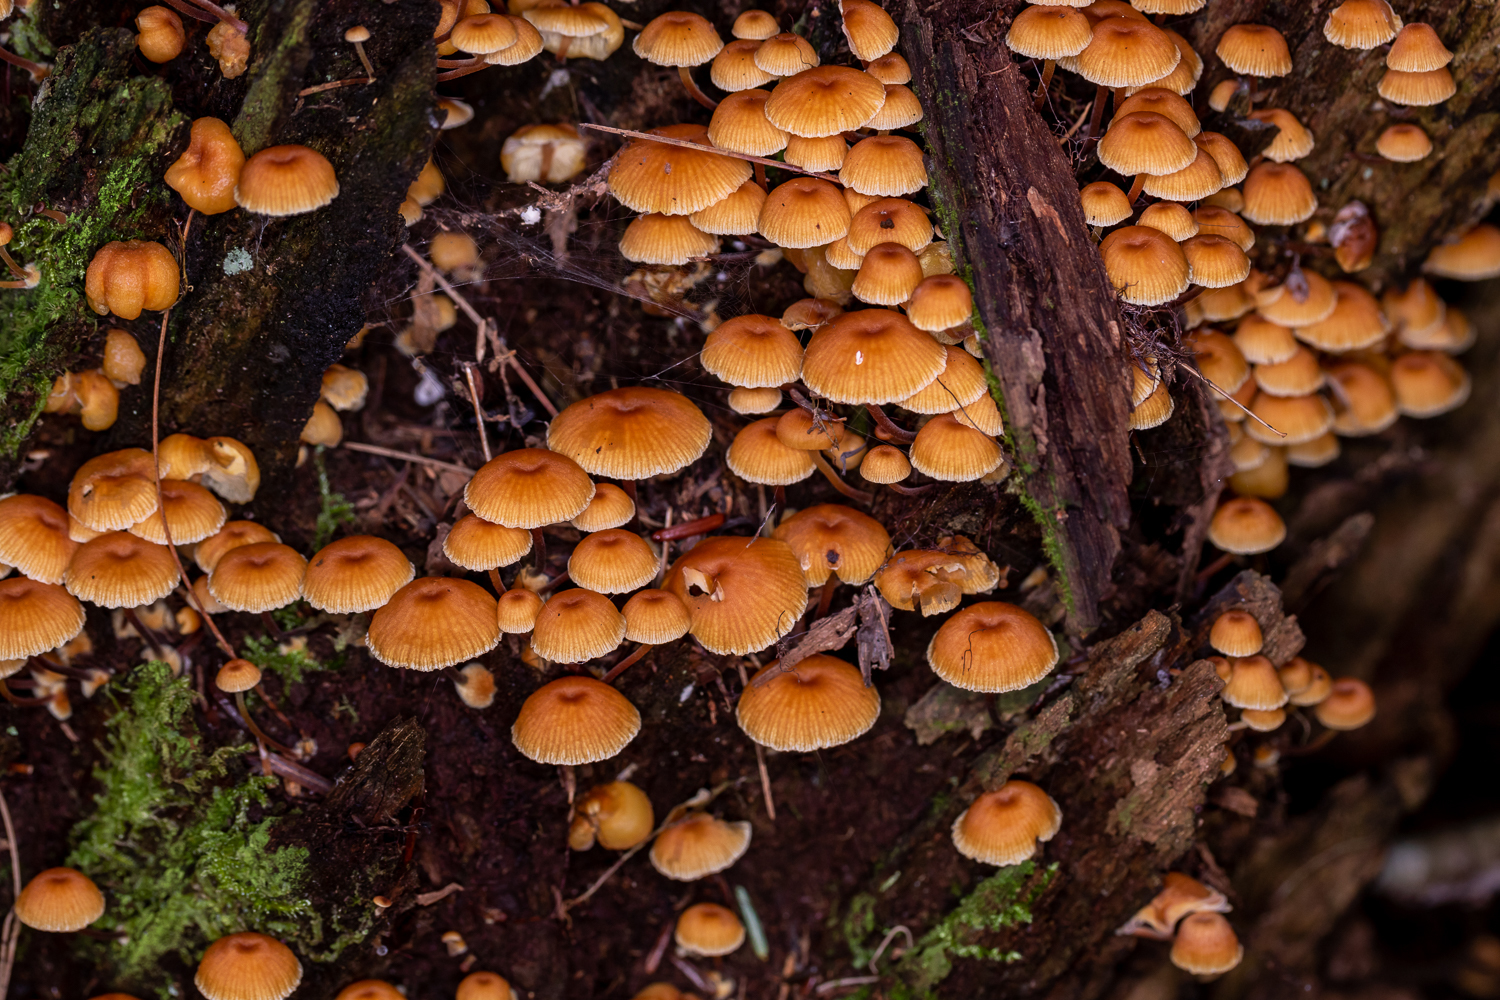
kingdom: Fungi
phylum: Basidiomycota
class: Agaricomycetes
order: Agaricales
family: Mycenaceae
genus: Xeromphalina
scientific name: Xeromphalina campanella
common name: Pinewood gingertail
